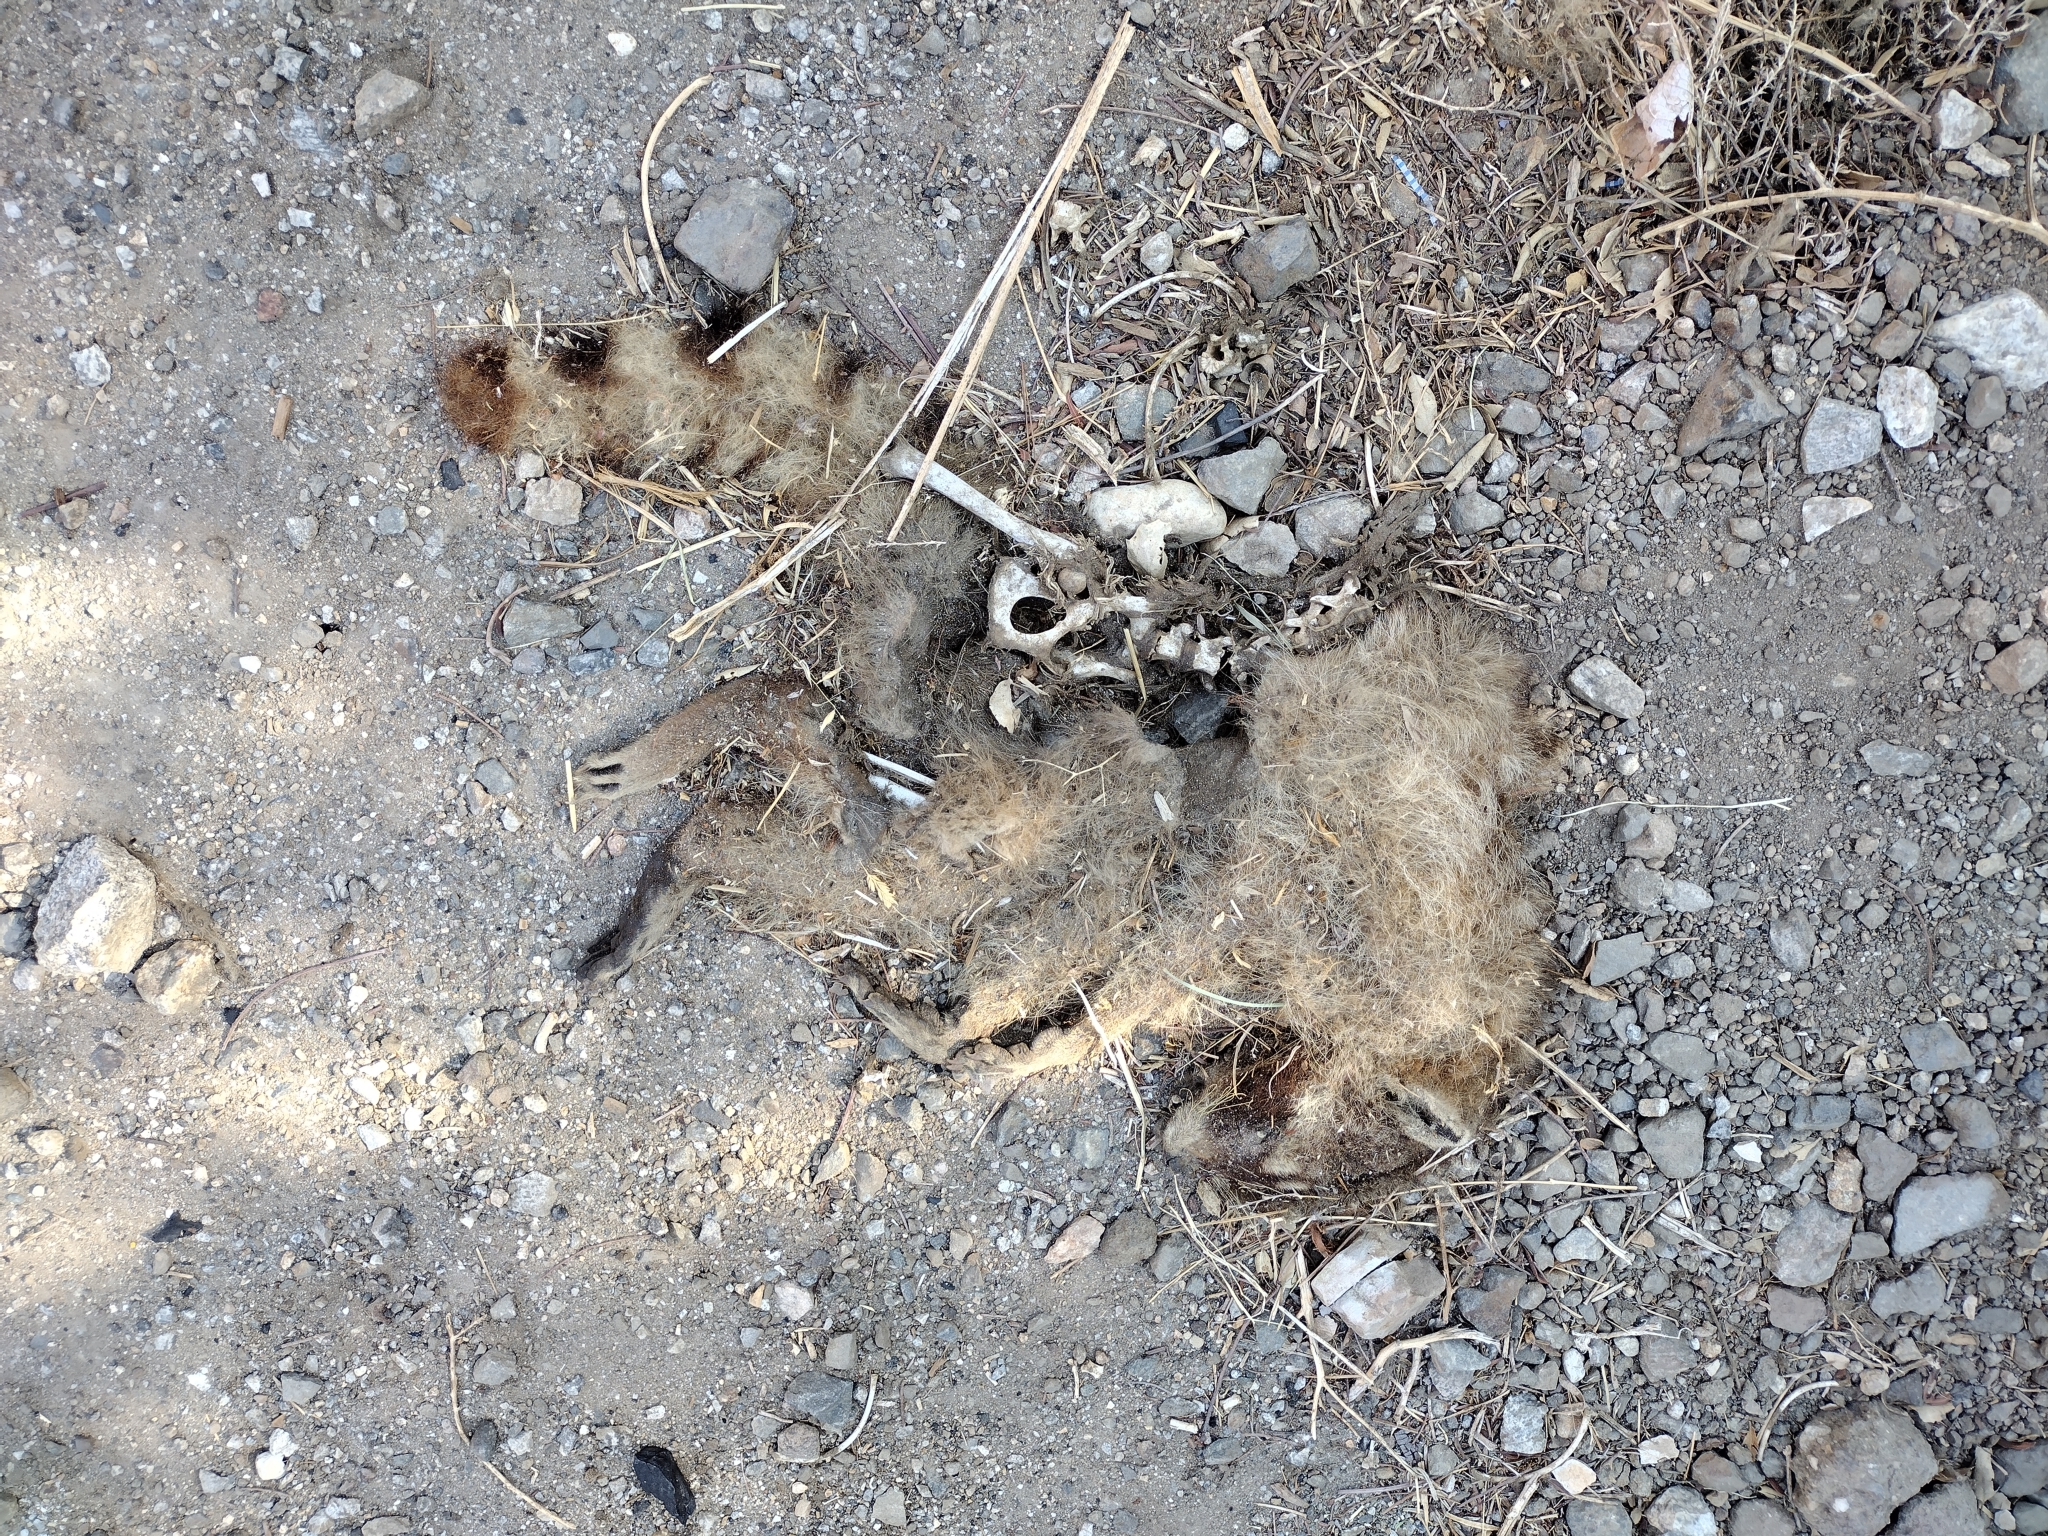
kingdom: Animalia
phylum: Chordata
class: Mammalia
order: Carnivora
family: Procyonidae
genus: Procyon
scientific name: Procyon lotor
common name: Raccoon
